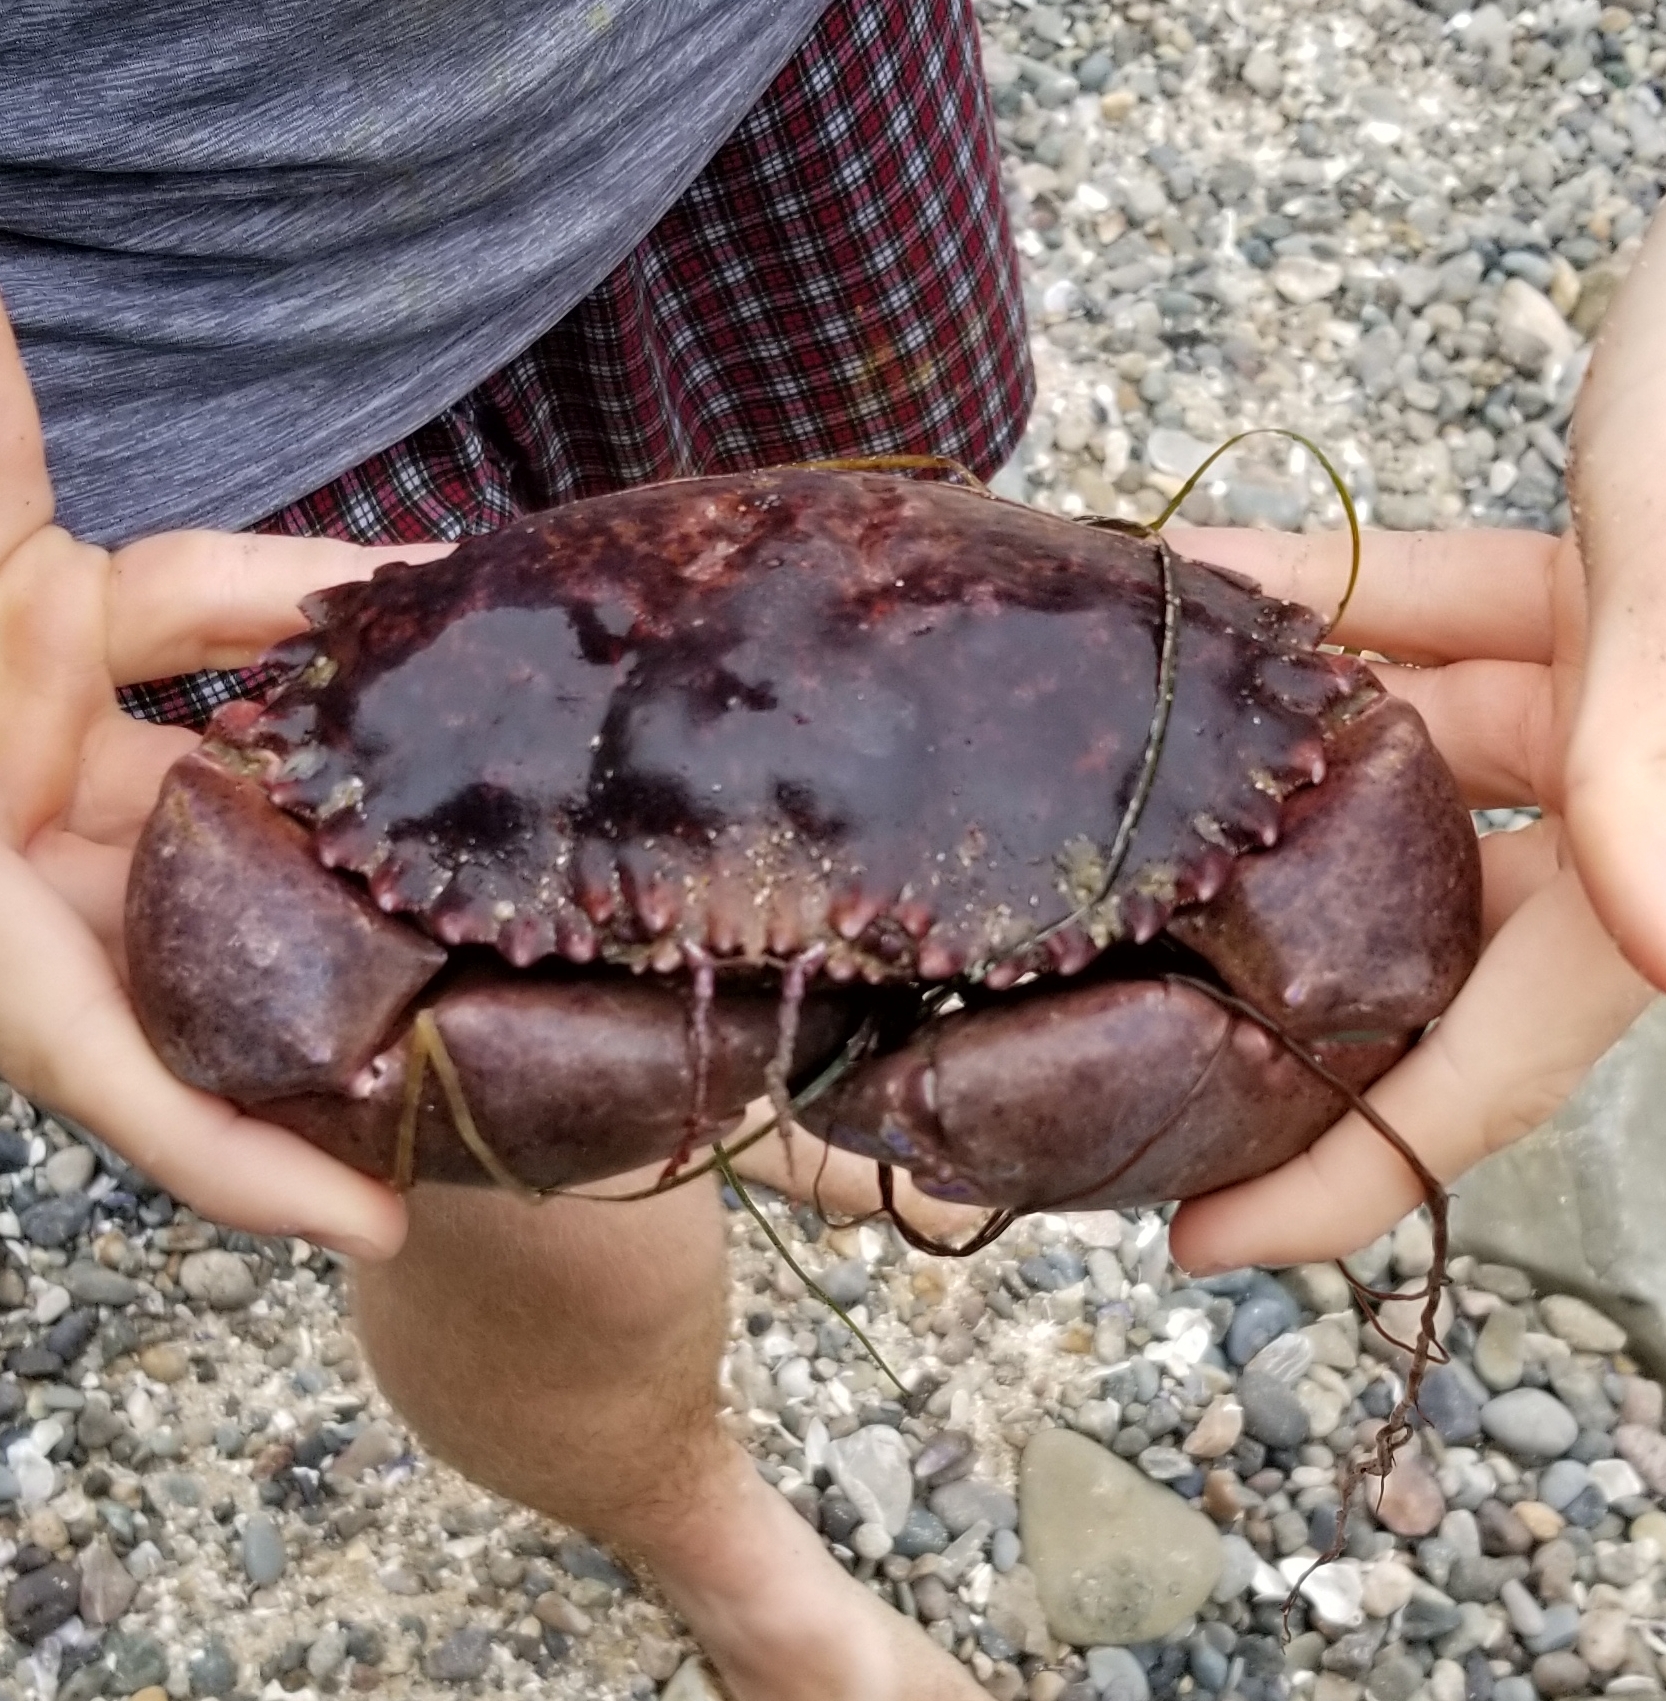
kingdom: Animalia
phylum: Arthropoda
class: Malacostraca
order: Decapoda
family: Cancridae
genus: Romaleon
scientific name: Romaleon antennarium
